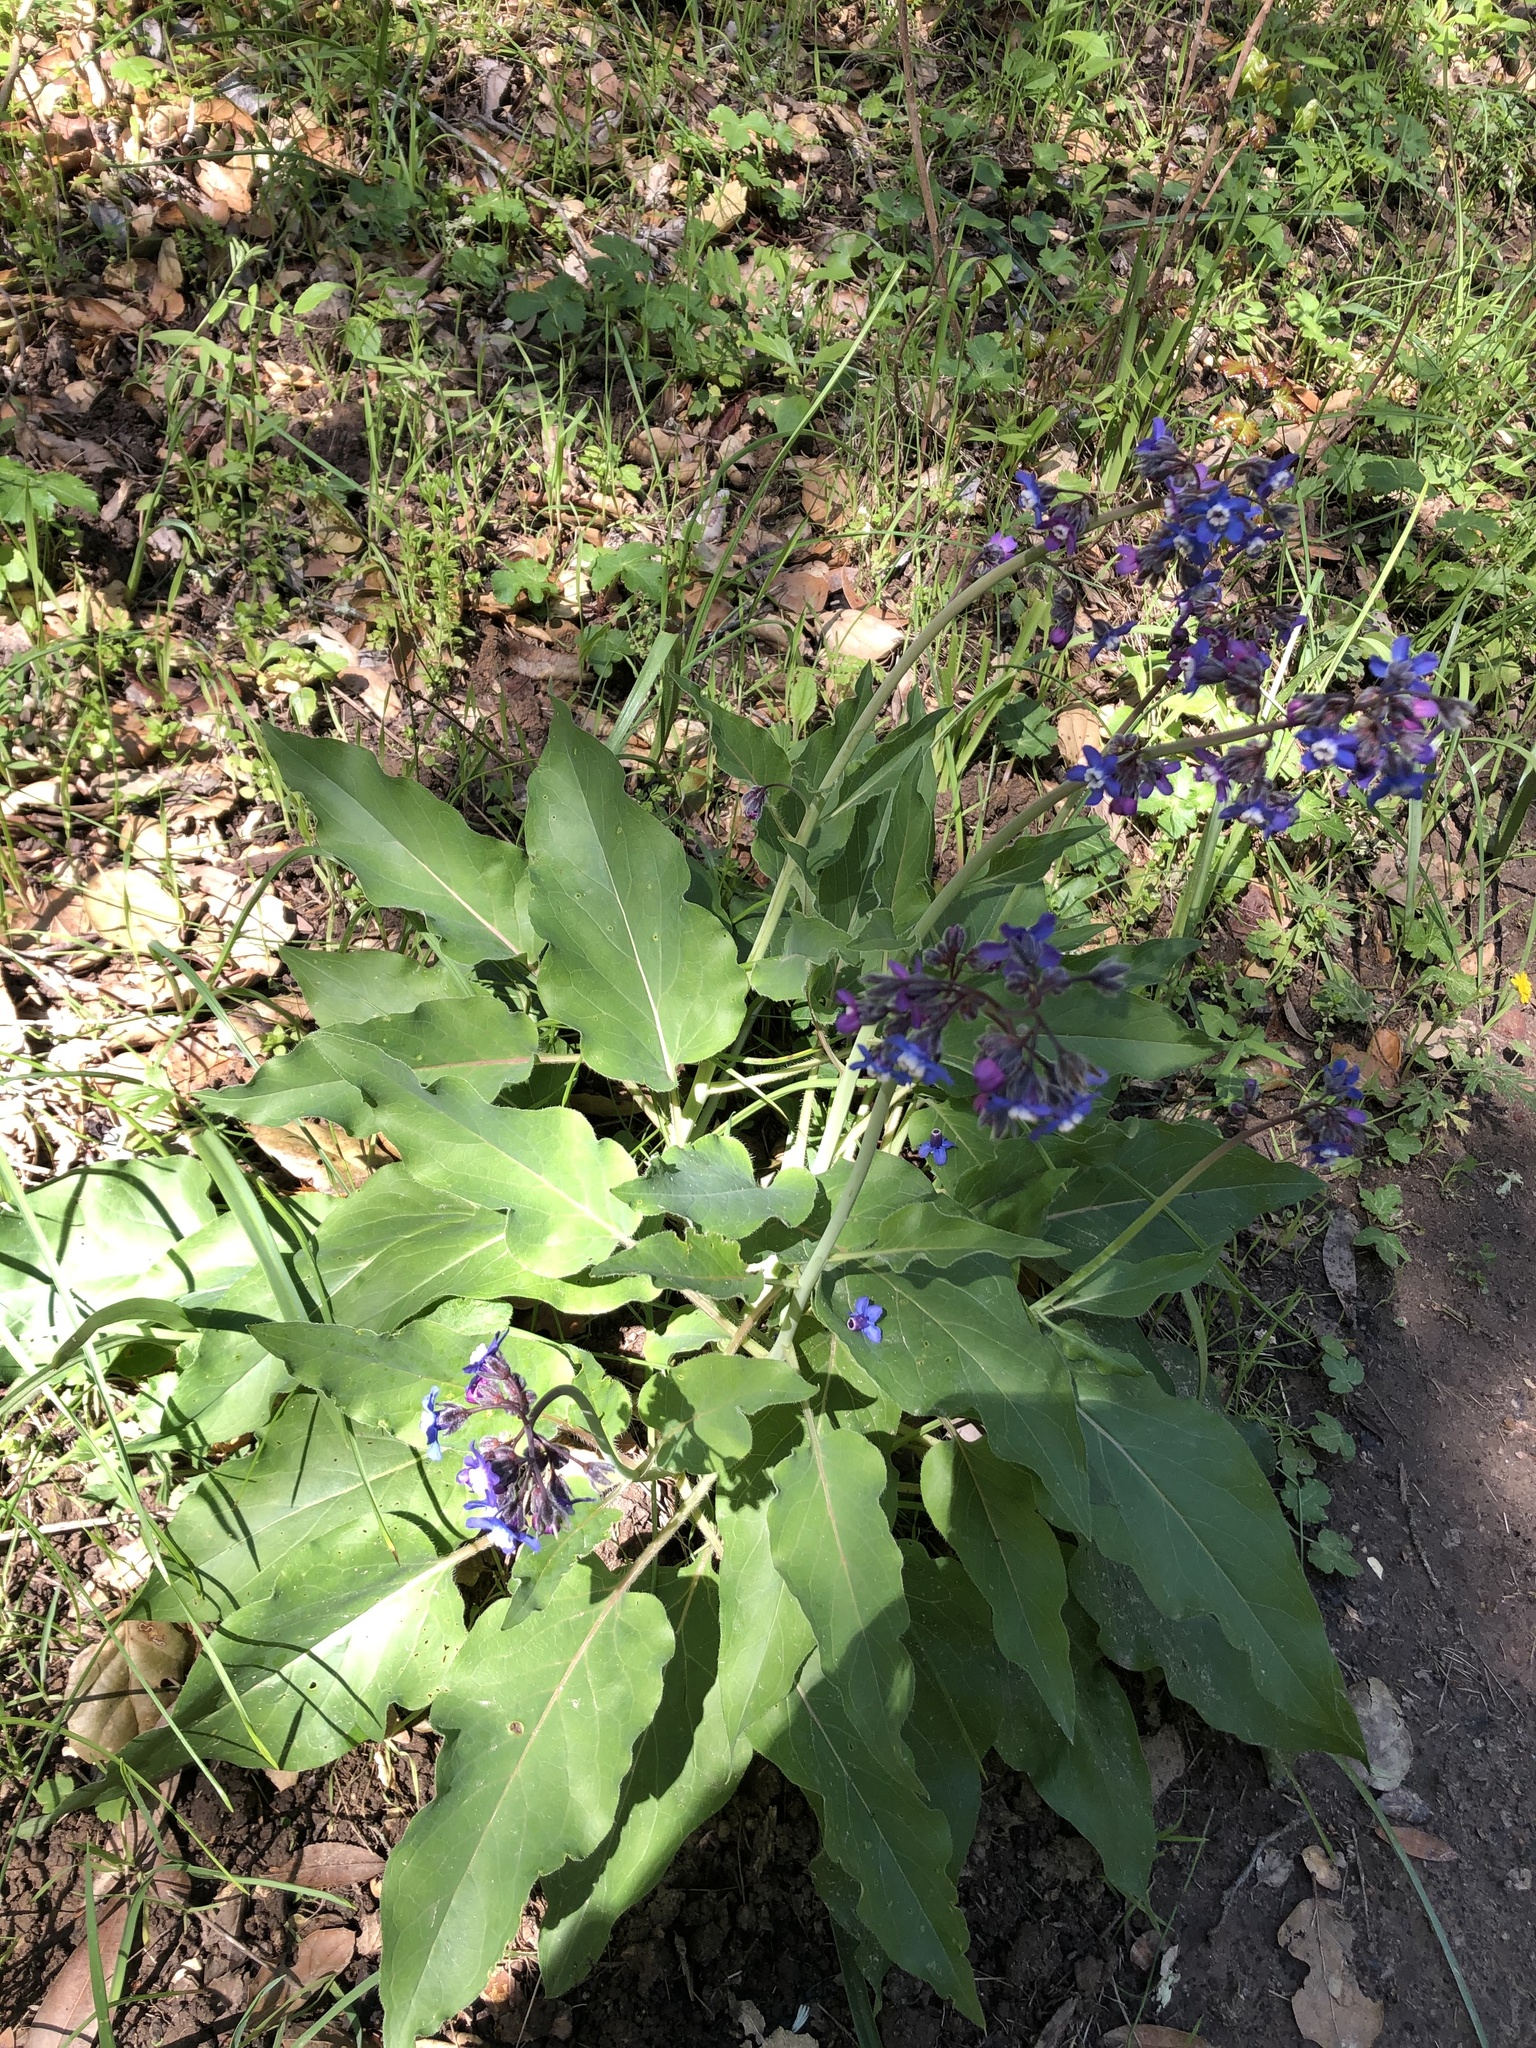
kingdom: Plantae
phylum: Tracheophyta
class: Magnoliopsida
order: Boraginales
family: Boraginaceae
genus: Adelinia
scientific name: Adelinia grande
